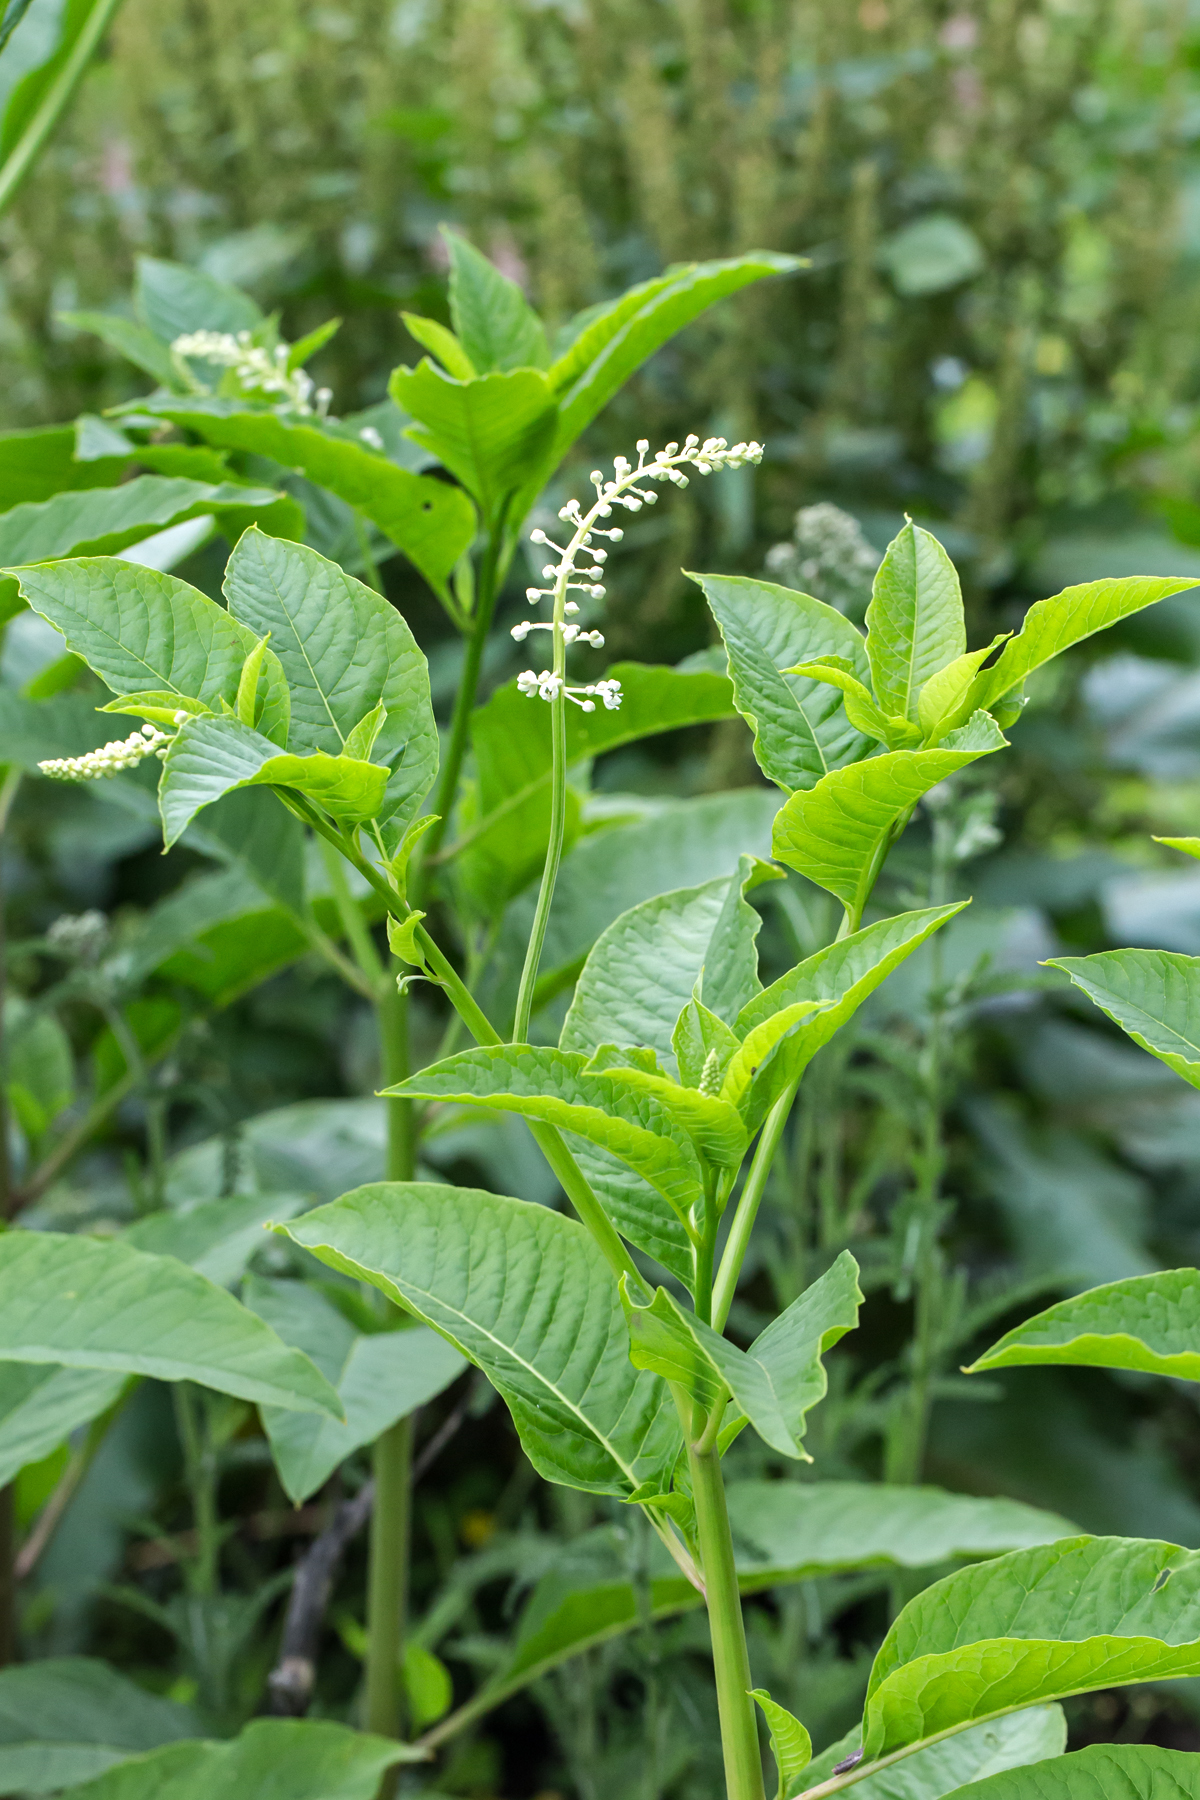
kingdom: Plantae
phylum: Tracheophyta
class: Magnoliopsida
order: Caryophyllales
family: Phytolaccaceae
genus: Phytolacca
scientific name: Phytolacca americana
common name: American pokeweed
